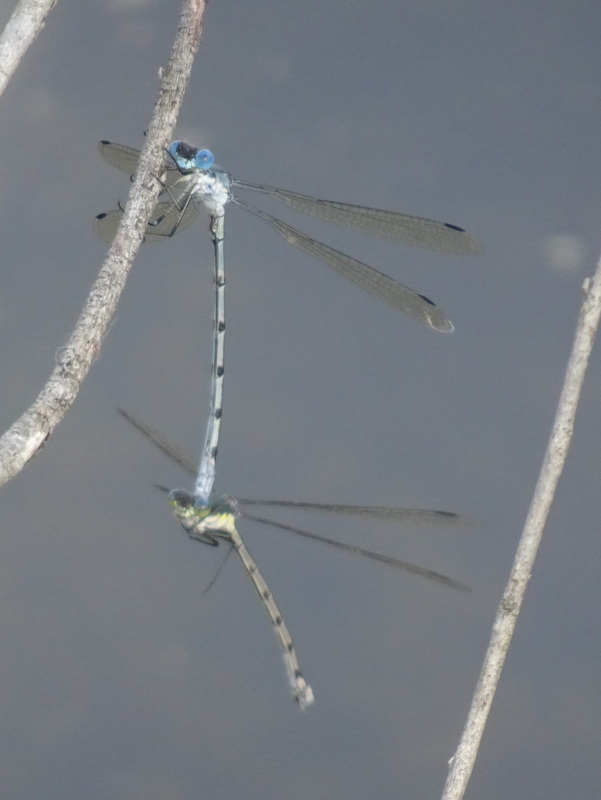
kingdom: Animalia
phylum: Arthropoda
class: Insecta
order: Odonata
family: Lestidae
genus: Lestes
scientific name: Lestes eurinus
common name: Amber-winged spreadwing
